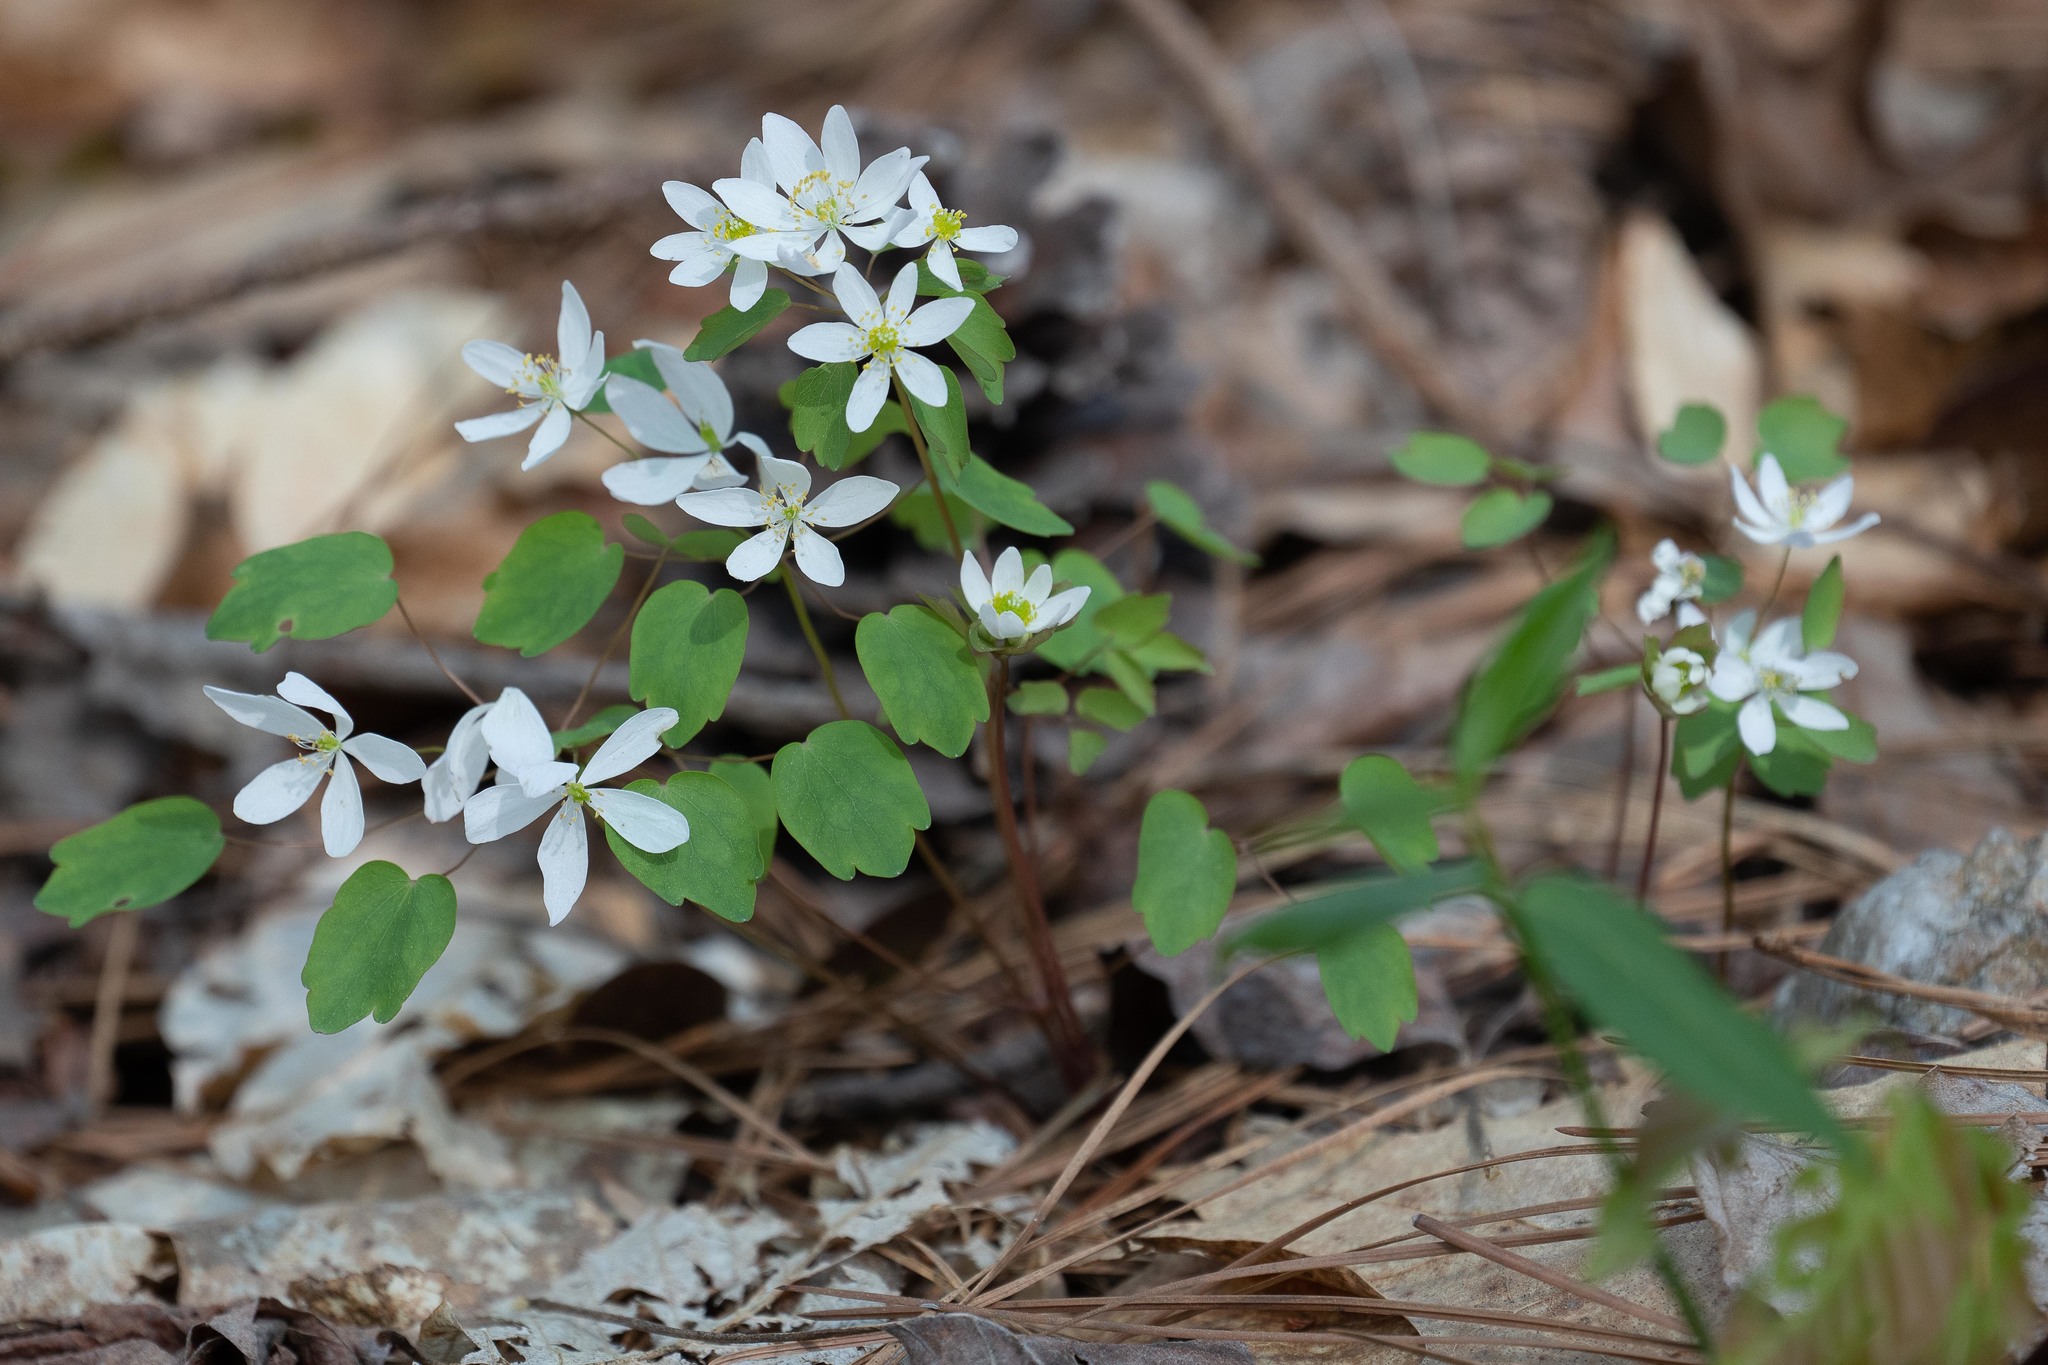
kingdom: Plantae
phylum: Tracheophyta
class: Magnoliopsida
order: Ranunculales
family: Ranunculaceae
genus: Thalictrum
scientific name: Thalictrum thalictroides
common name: Rue-anemone
